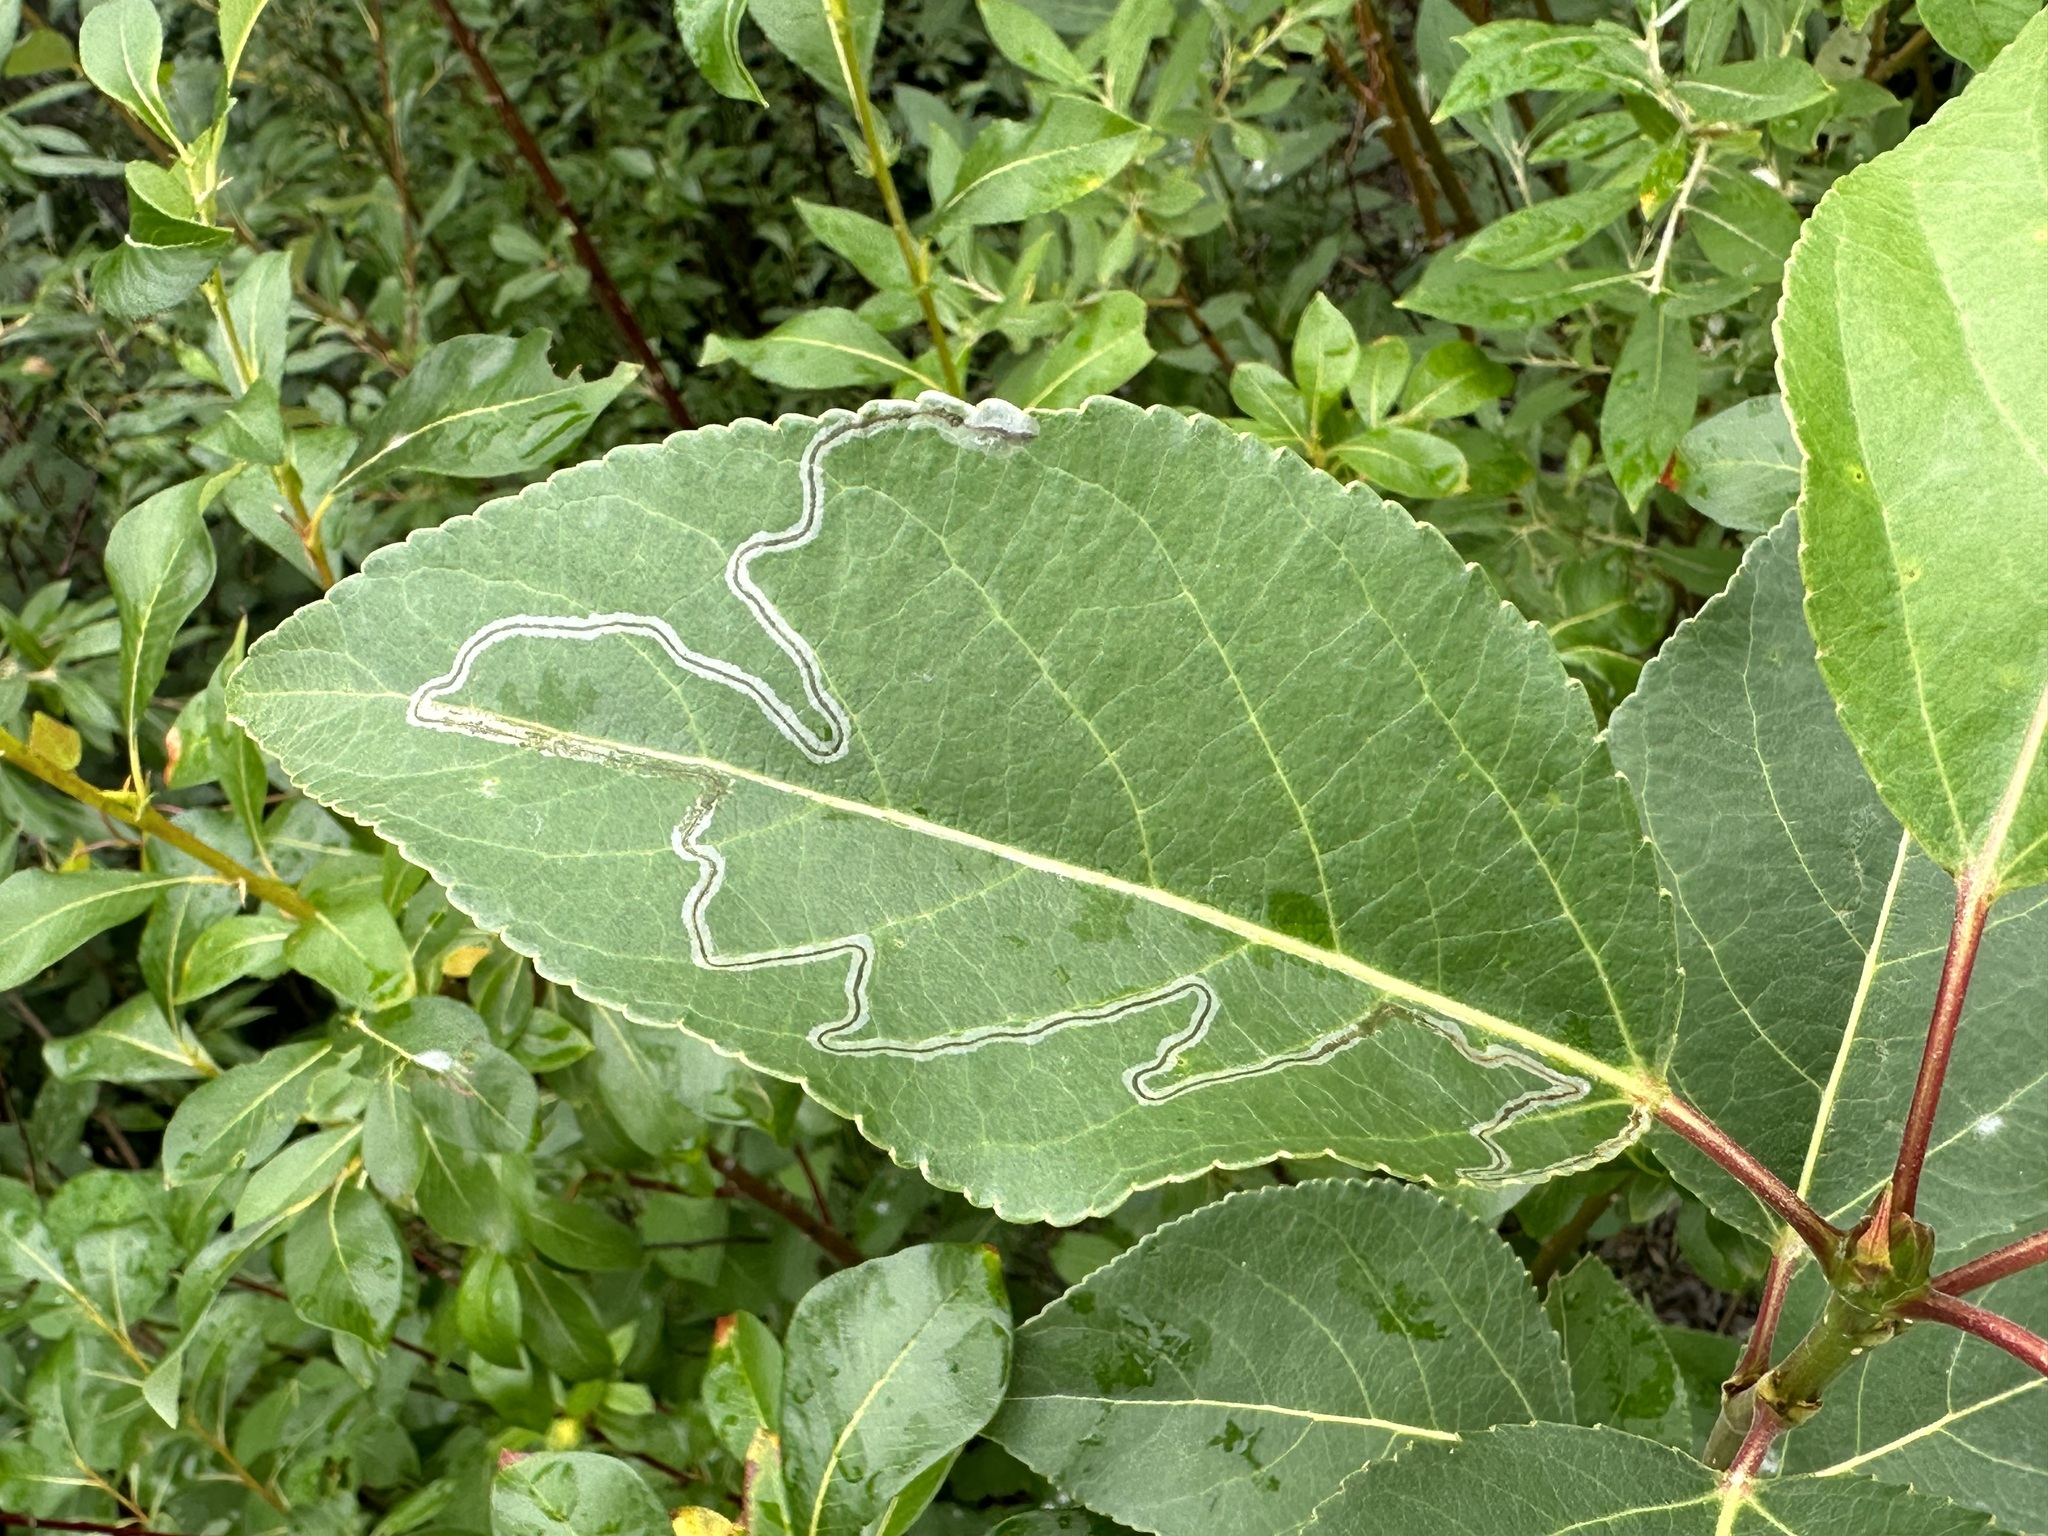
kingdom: Animalia
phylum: Arthropoda
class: Insecta
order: Lepidoptera
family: Gracillariidae
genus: Phyllocnistis
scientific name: Phyllocnistis populiella
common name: Aspen serpentine leafminer moth
